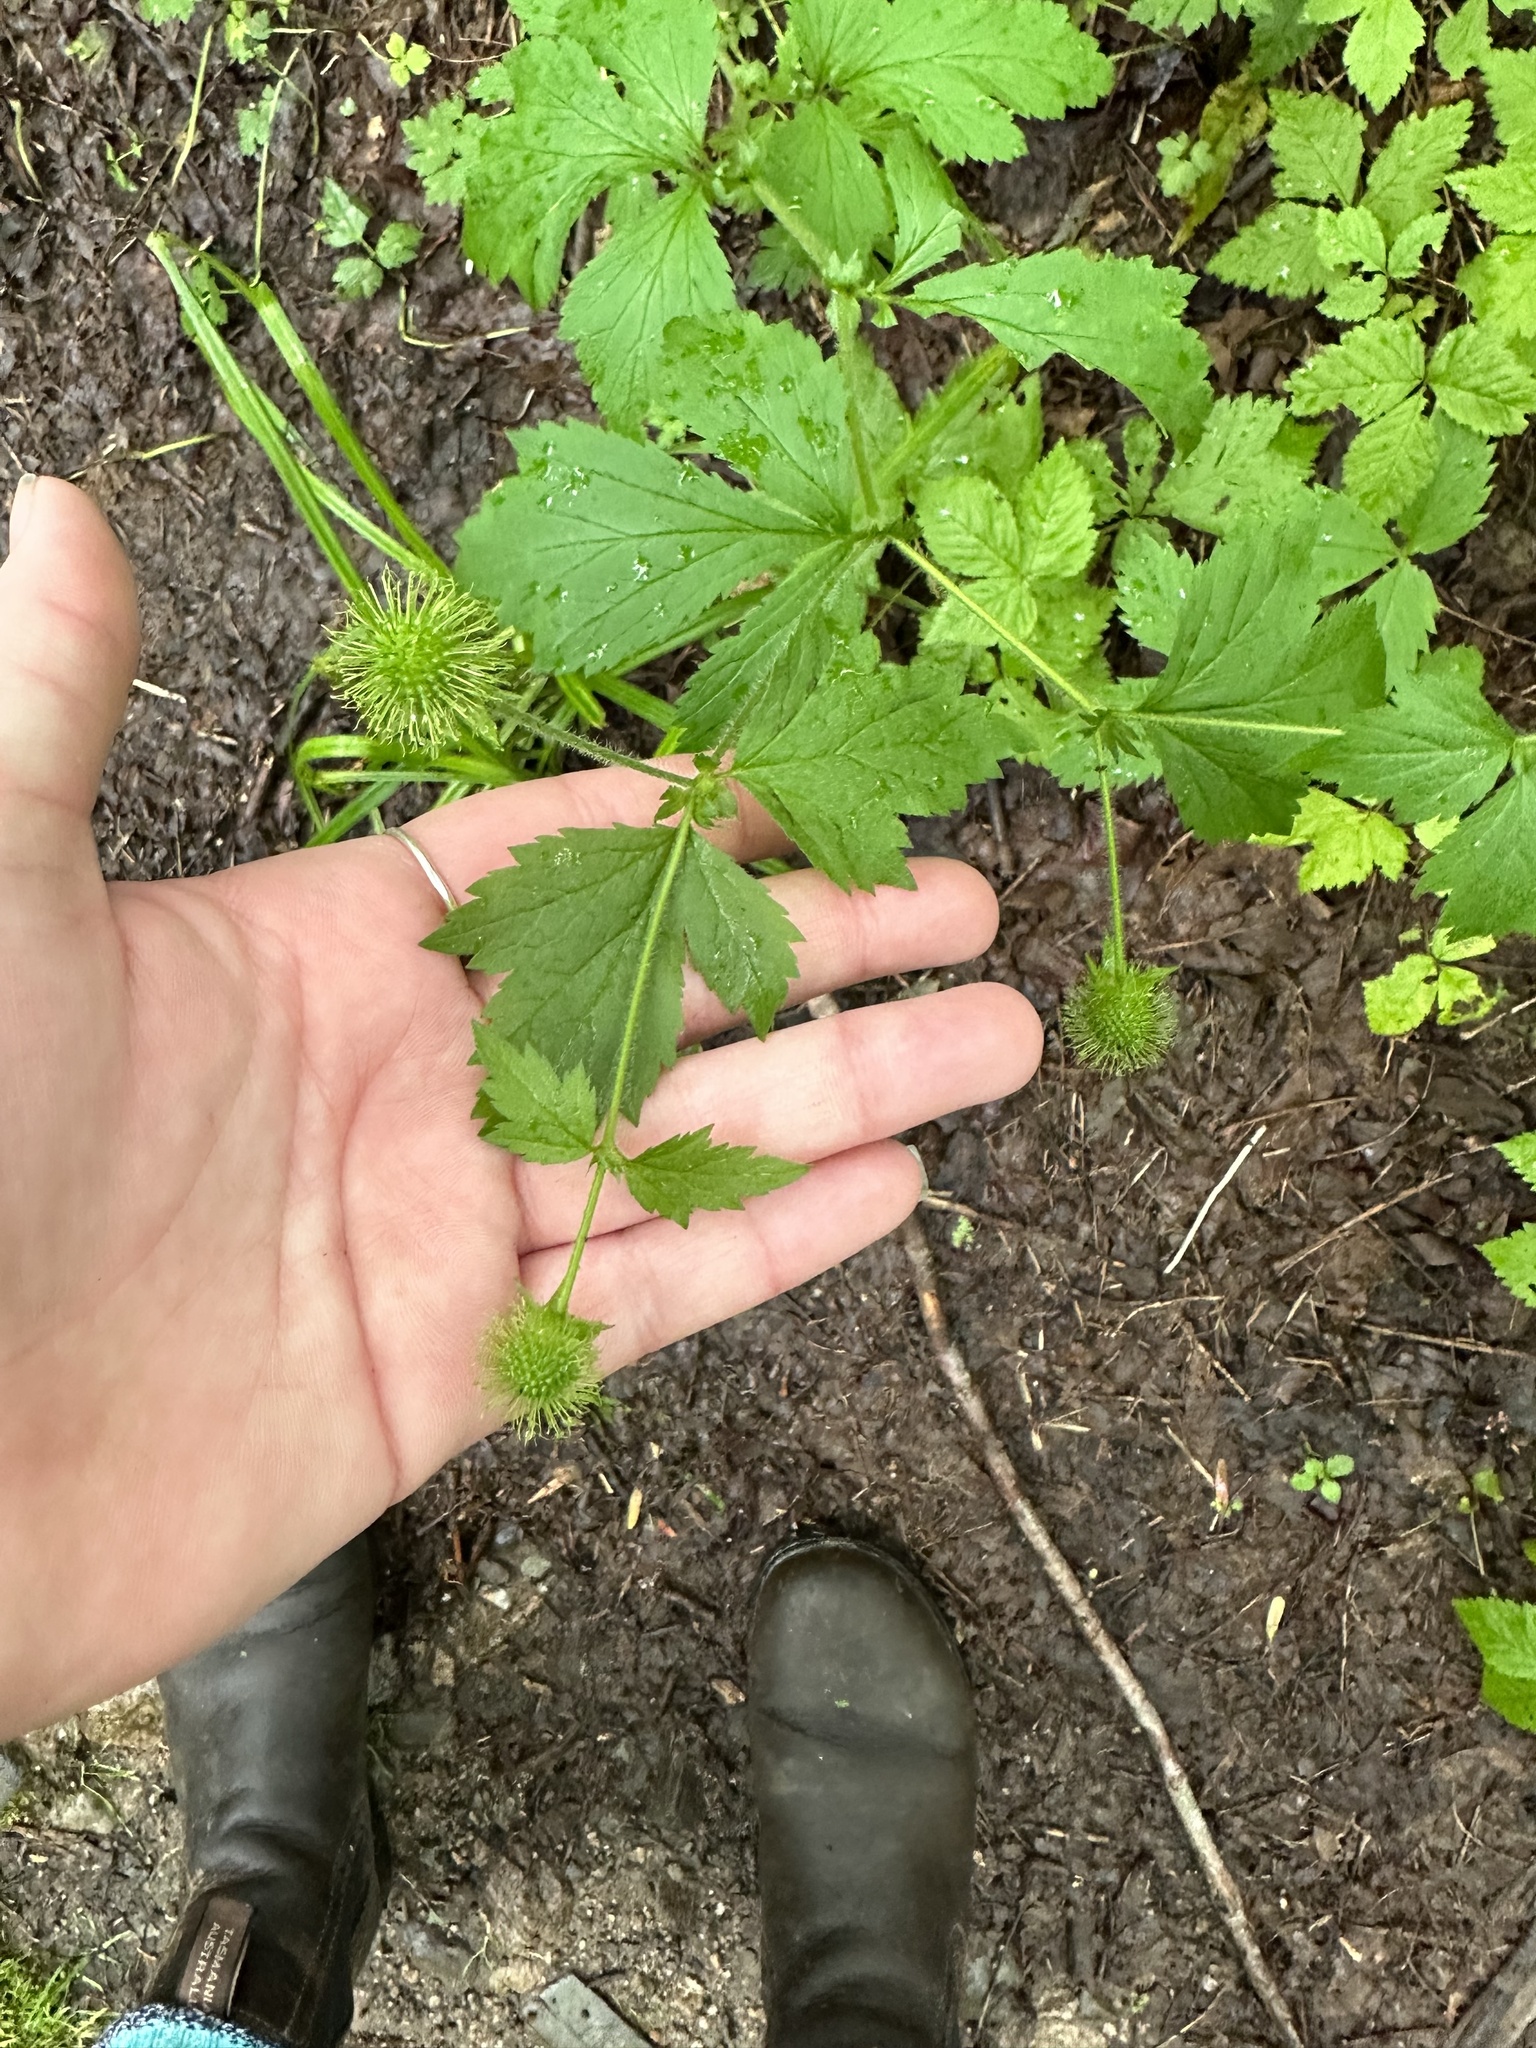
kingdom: Plantae
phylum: Tracheophyta
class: Magnoliopsida
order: Rosales
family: Rosaceae
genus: Geum
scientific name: Geum laciniatum
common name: Rough avens
